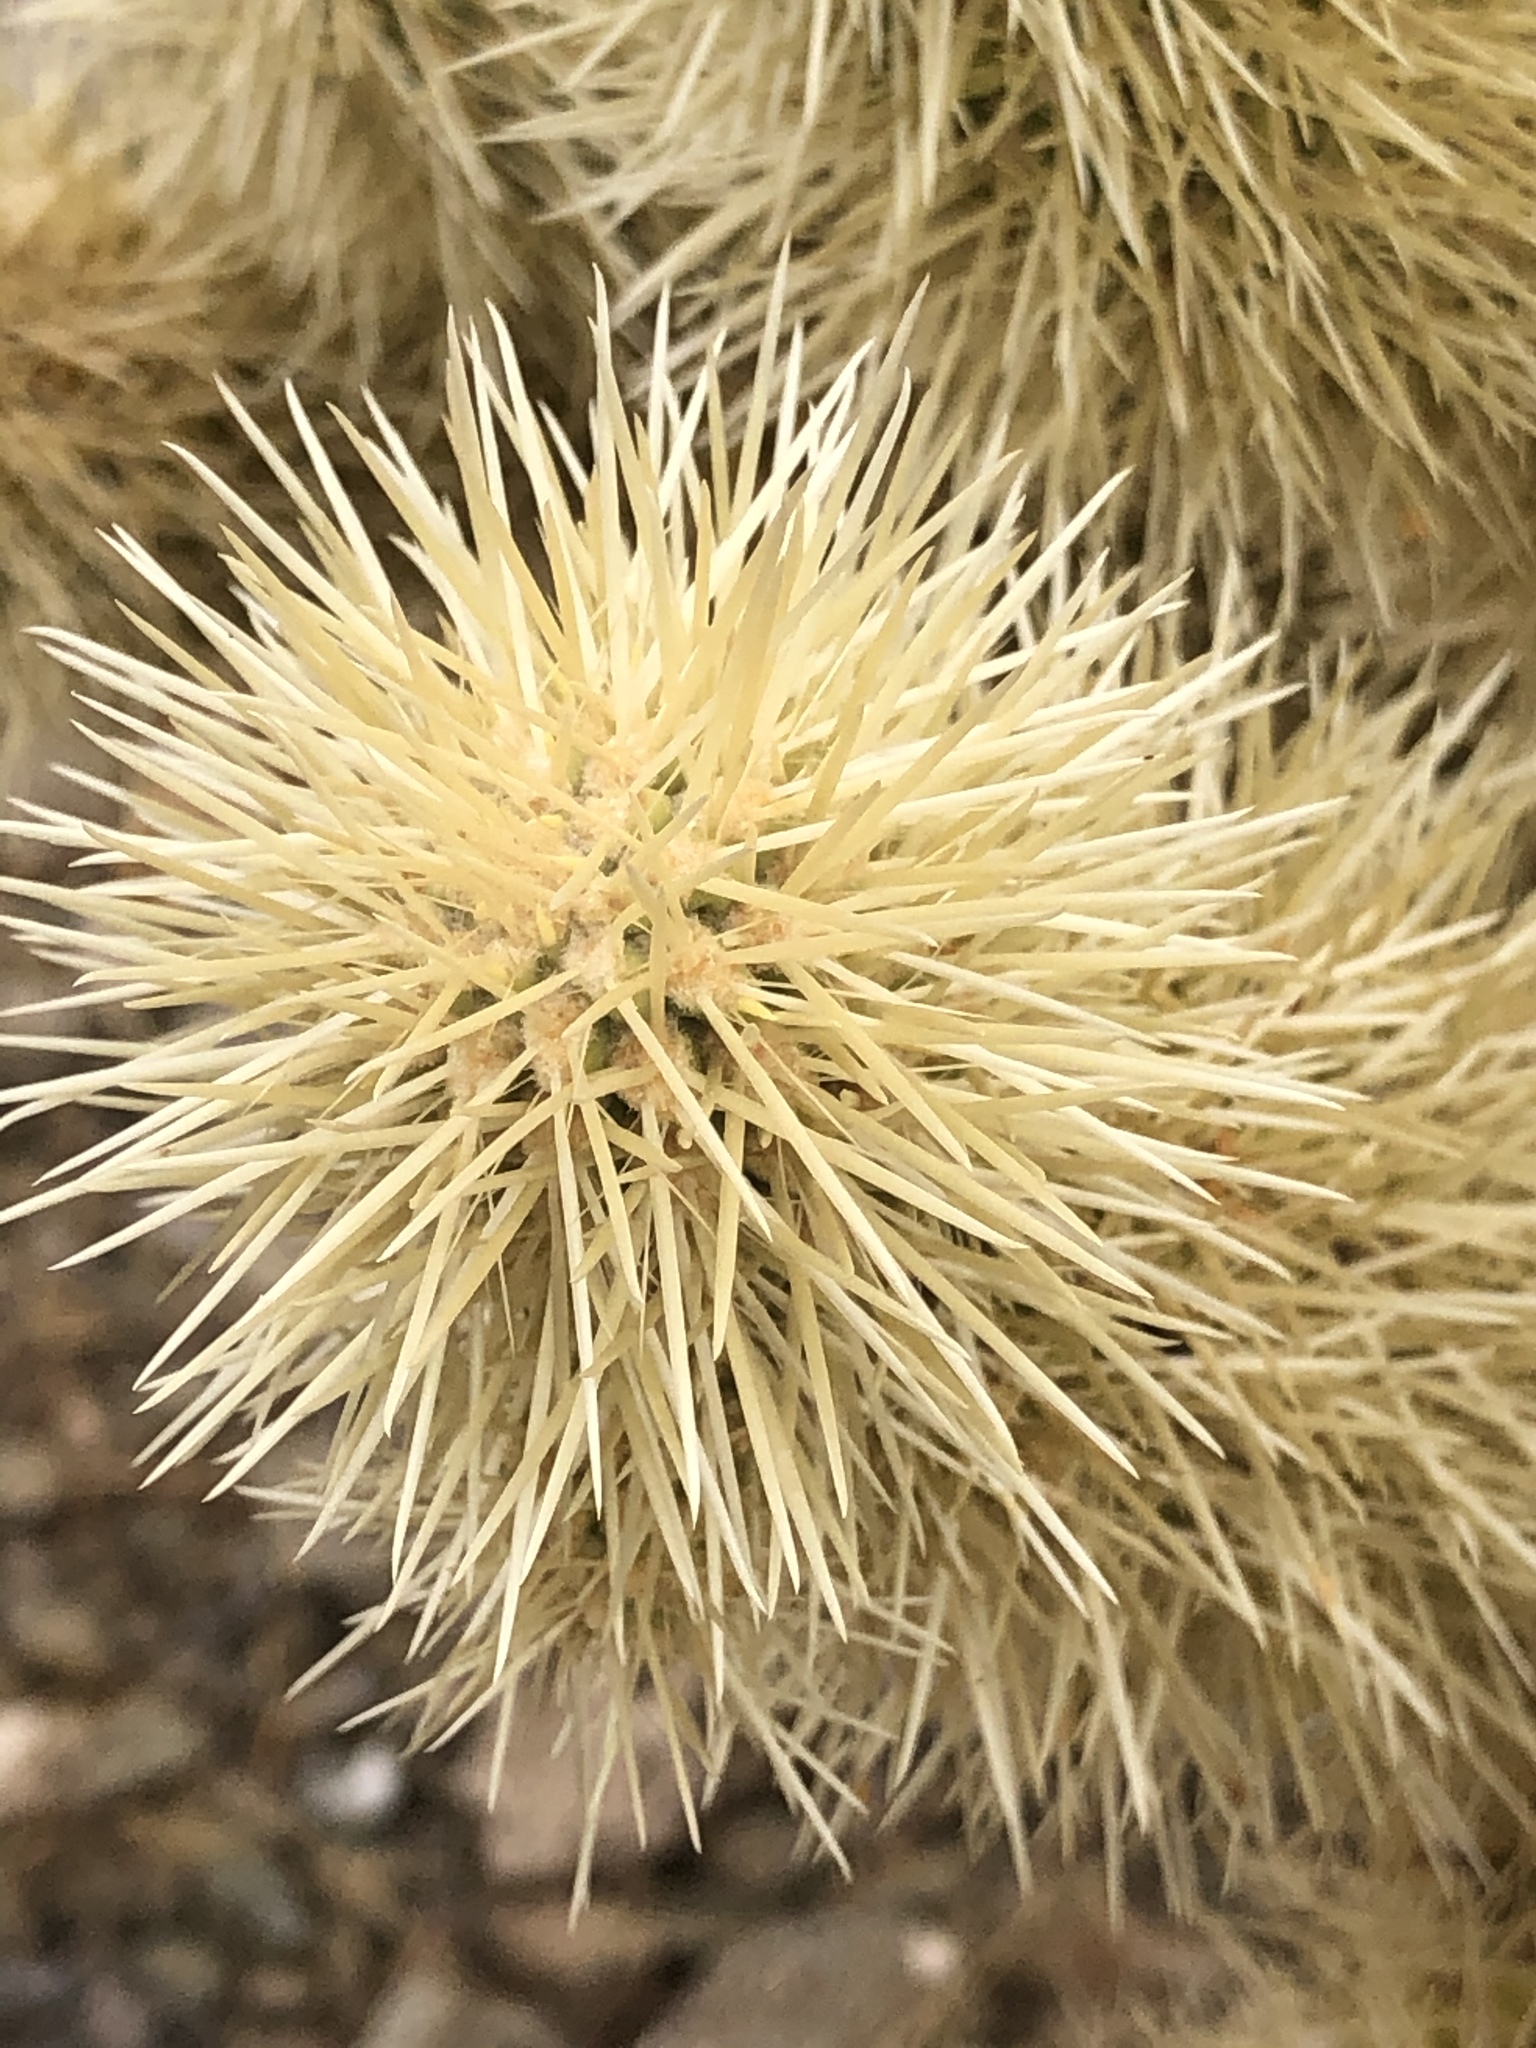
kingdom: Plantae
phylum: Tracheophyta
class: Magnoliopsida
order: Caryophyllales
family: Cactaceae
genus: Cylindropuntia
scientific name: Cylindropuntia fosbergii
